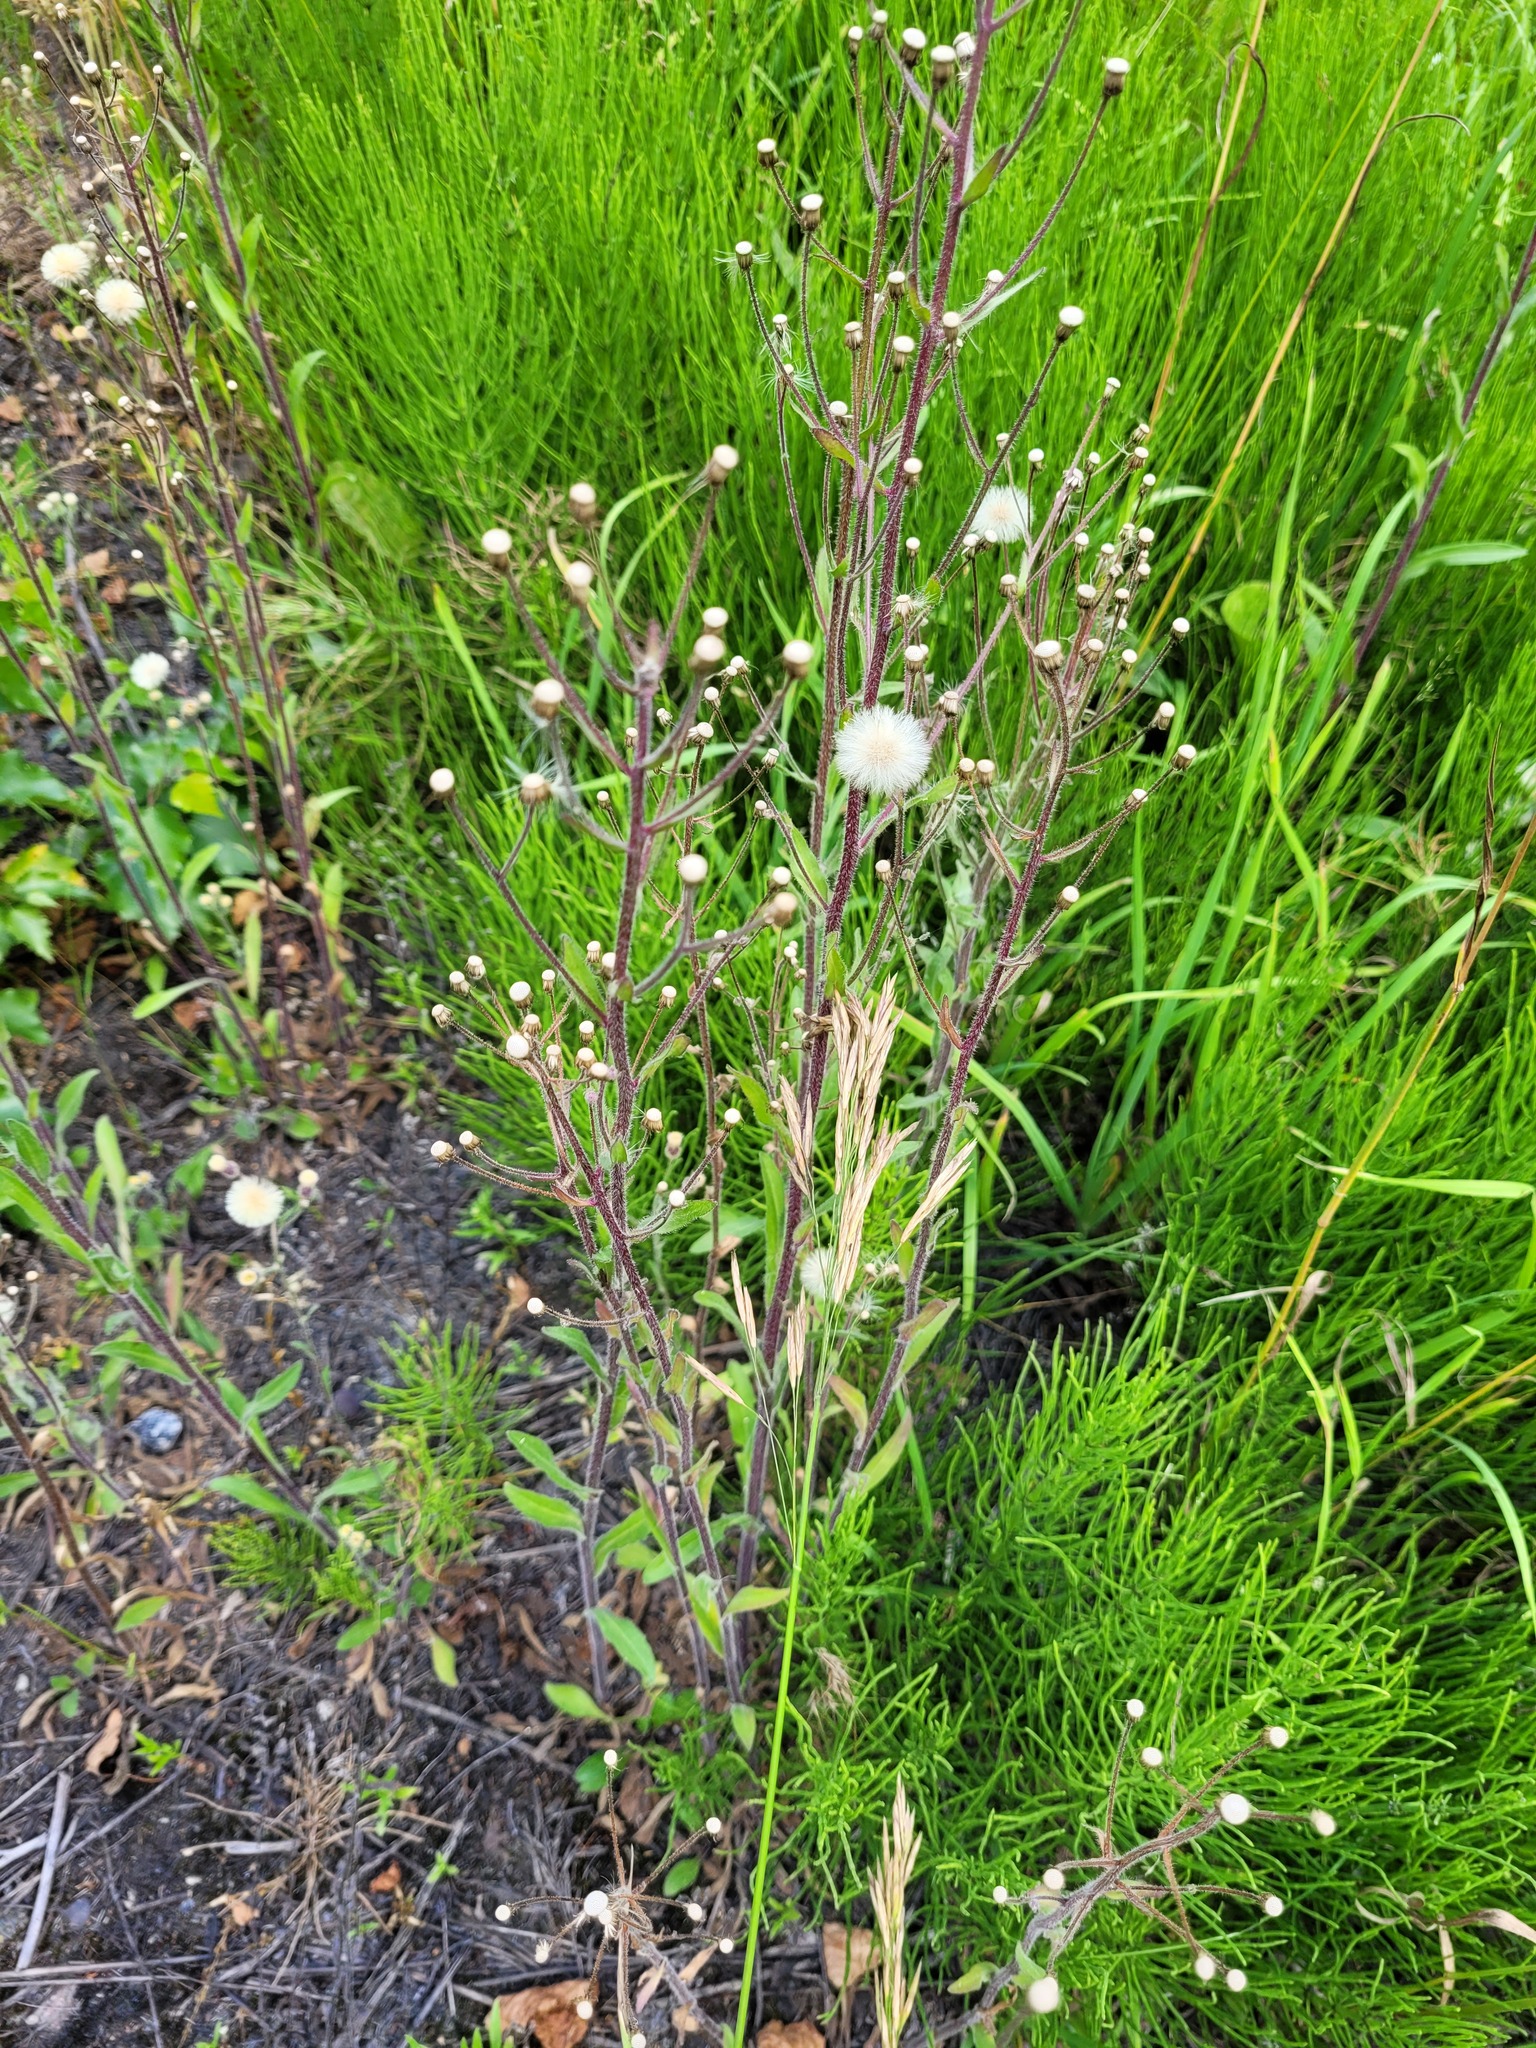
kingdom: Plantae
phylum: Tracheophyta
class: Magnoliopsida
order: Asterales
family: Asteraceae
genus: Erigeron
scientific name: Erigeron acris
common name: Blue fleabane
